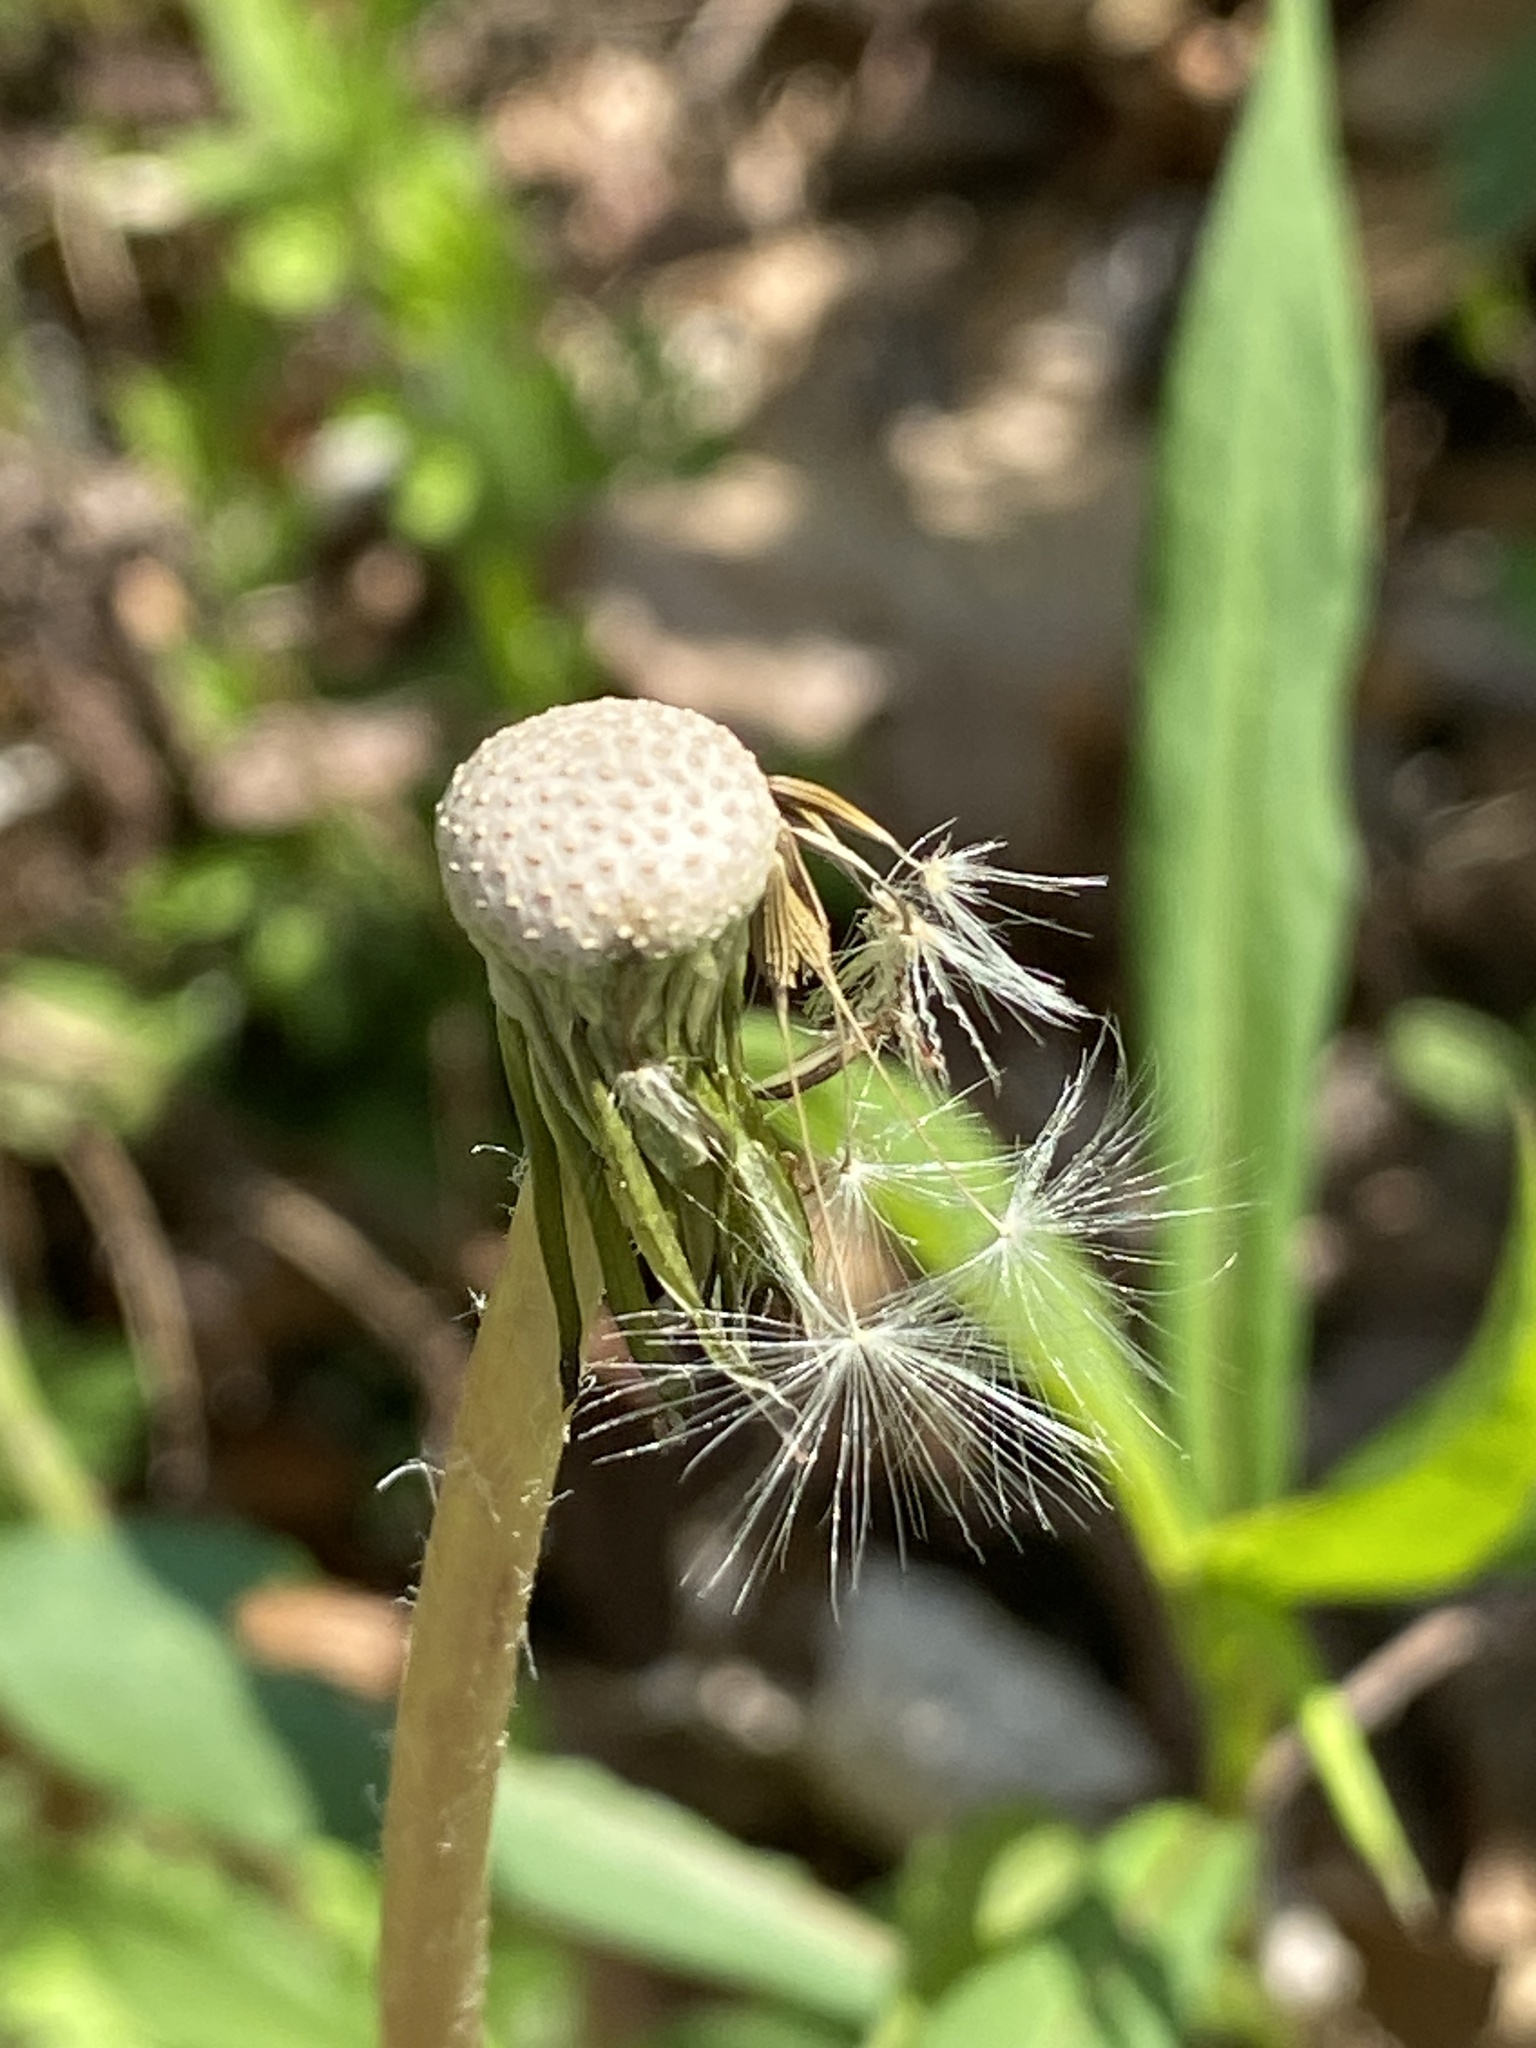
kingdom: Plantae
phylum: Tracheophyta
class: Magnoliopsida
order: Asterales
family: Asteraceae
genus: Taraxacum
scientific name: Taraxacum
